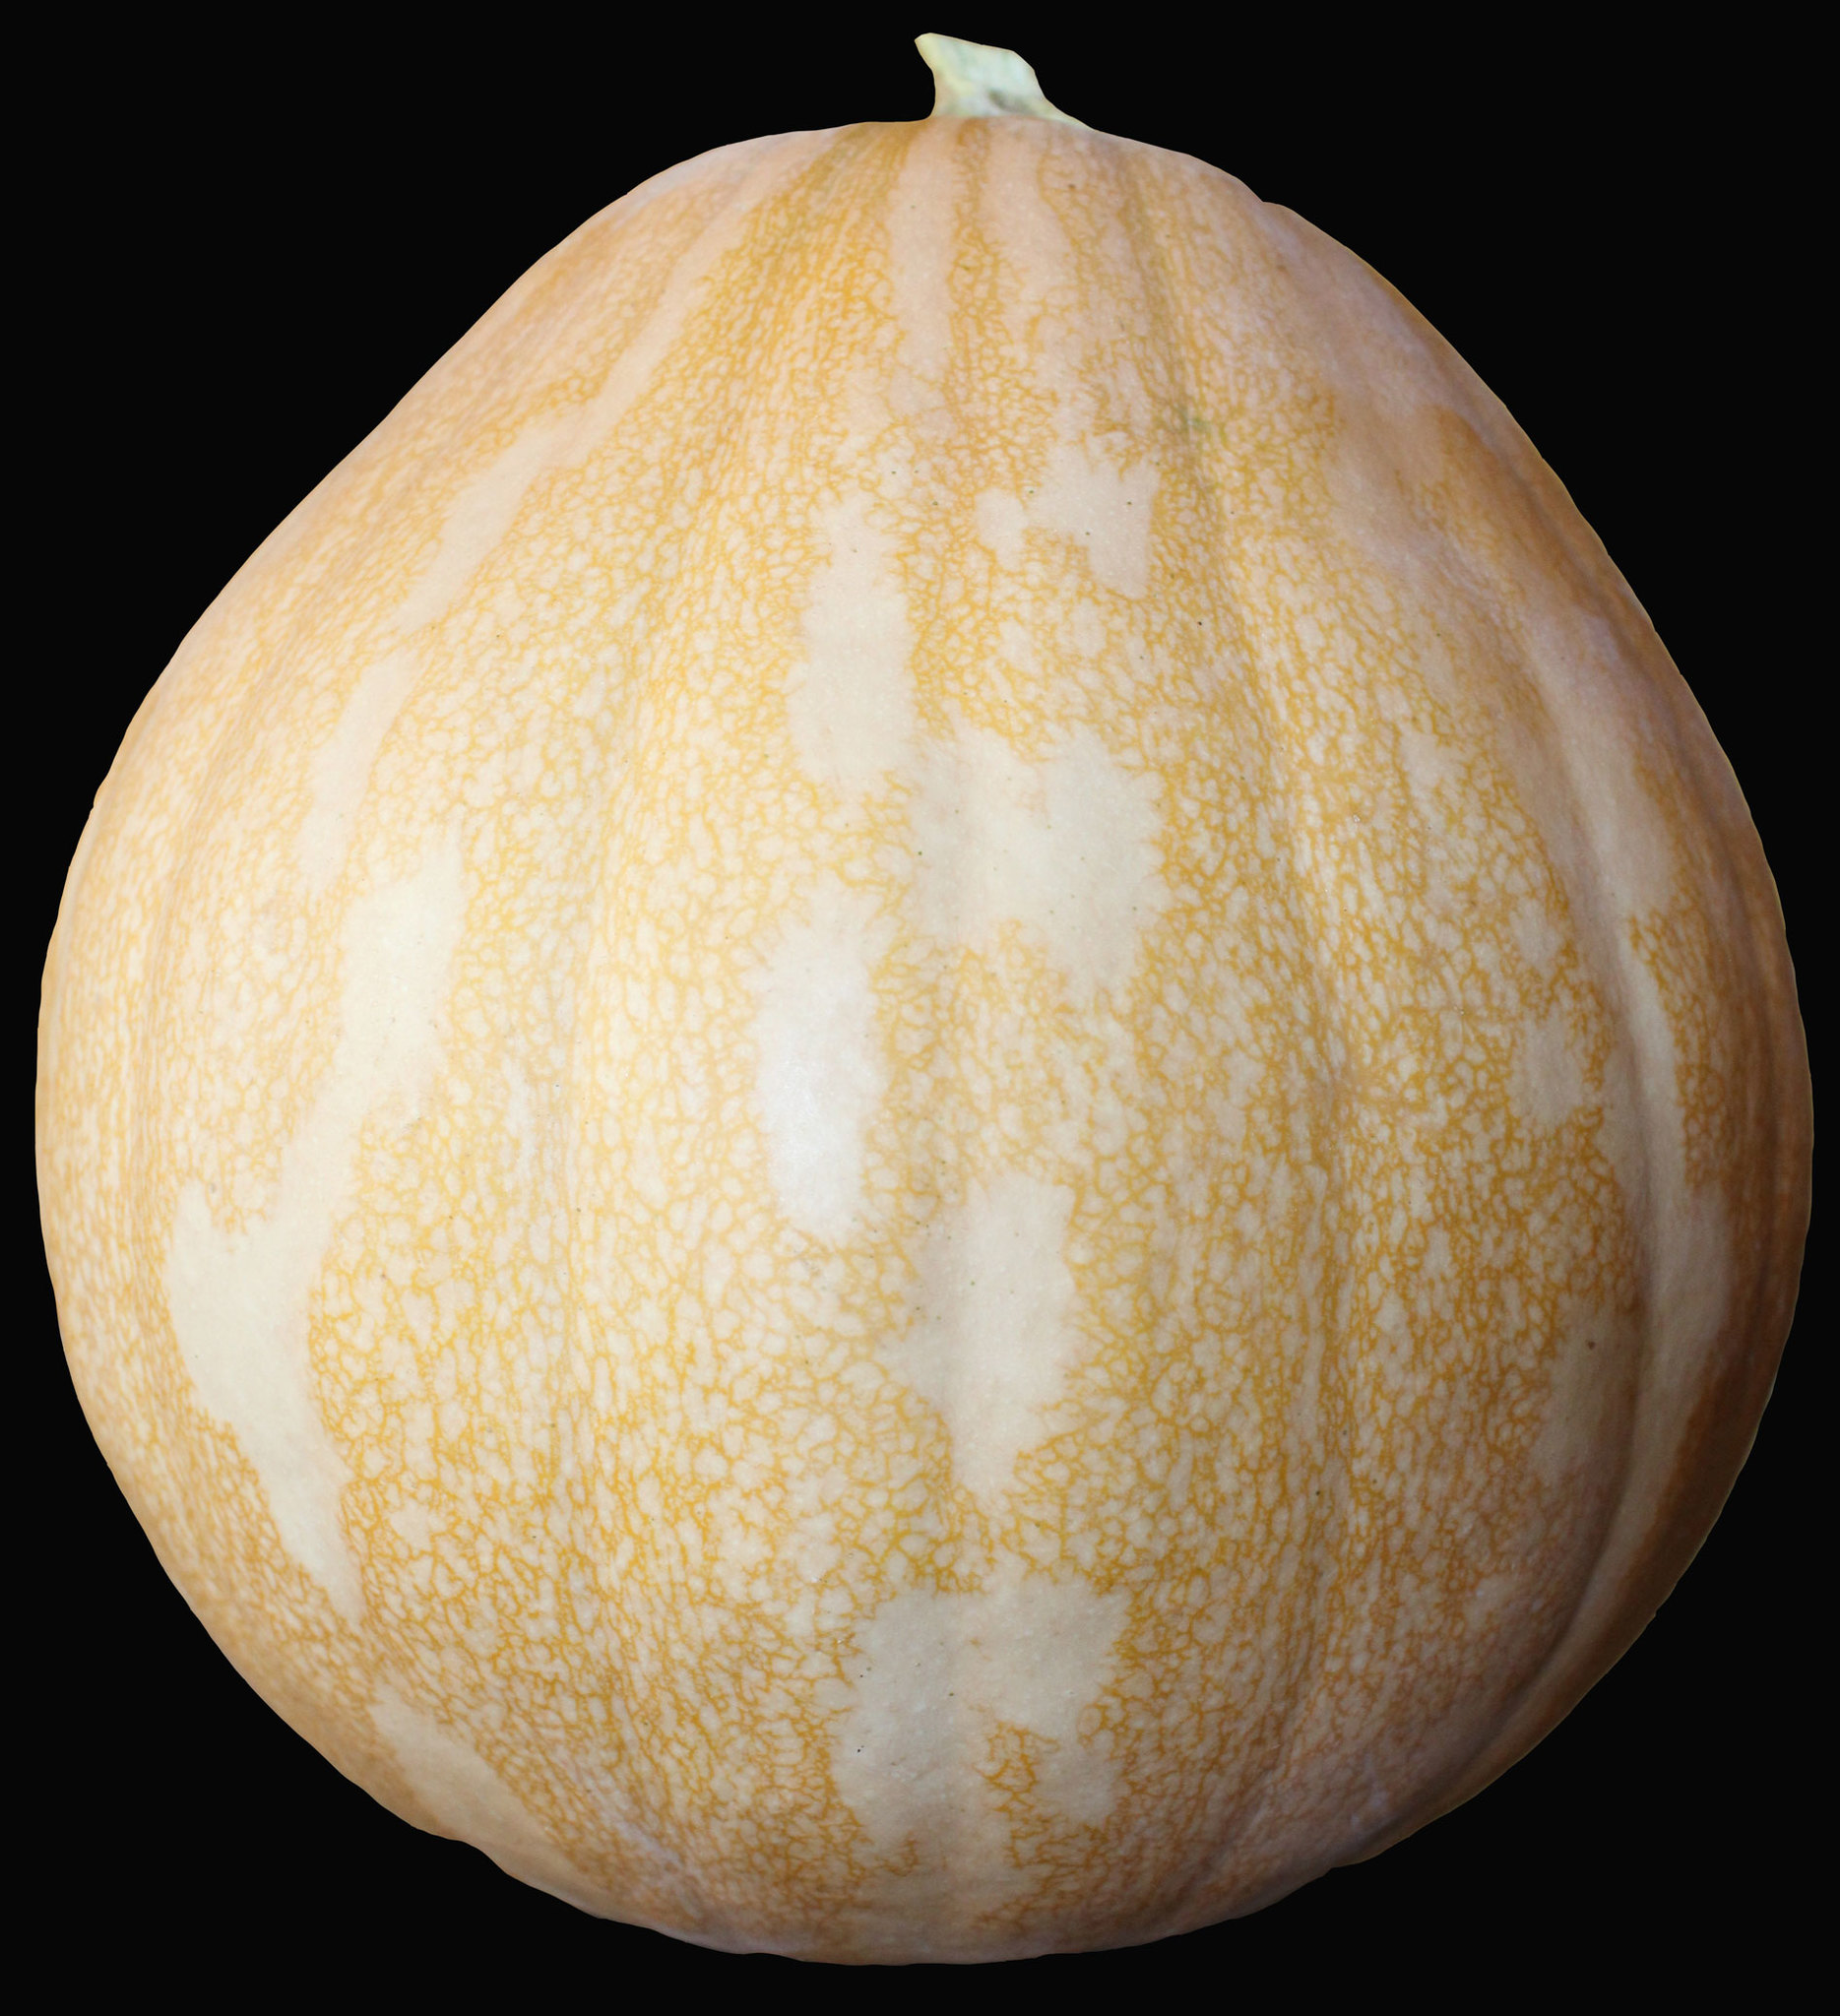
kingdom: Plantae
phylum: Tracheophyta
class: Magnoliopsida
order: Cucurbitales
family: Cucurbitaceae
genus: Cucurbita
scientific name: Cucurbita moschata
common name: Squash / pumpkin
